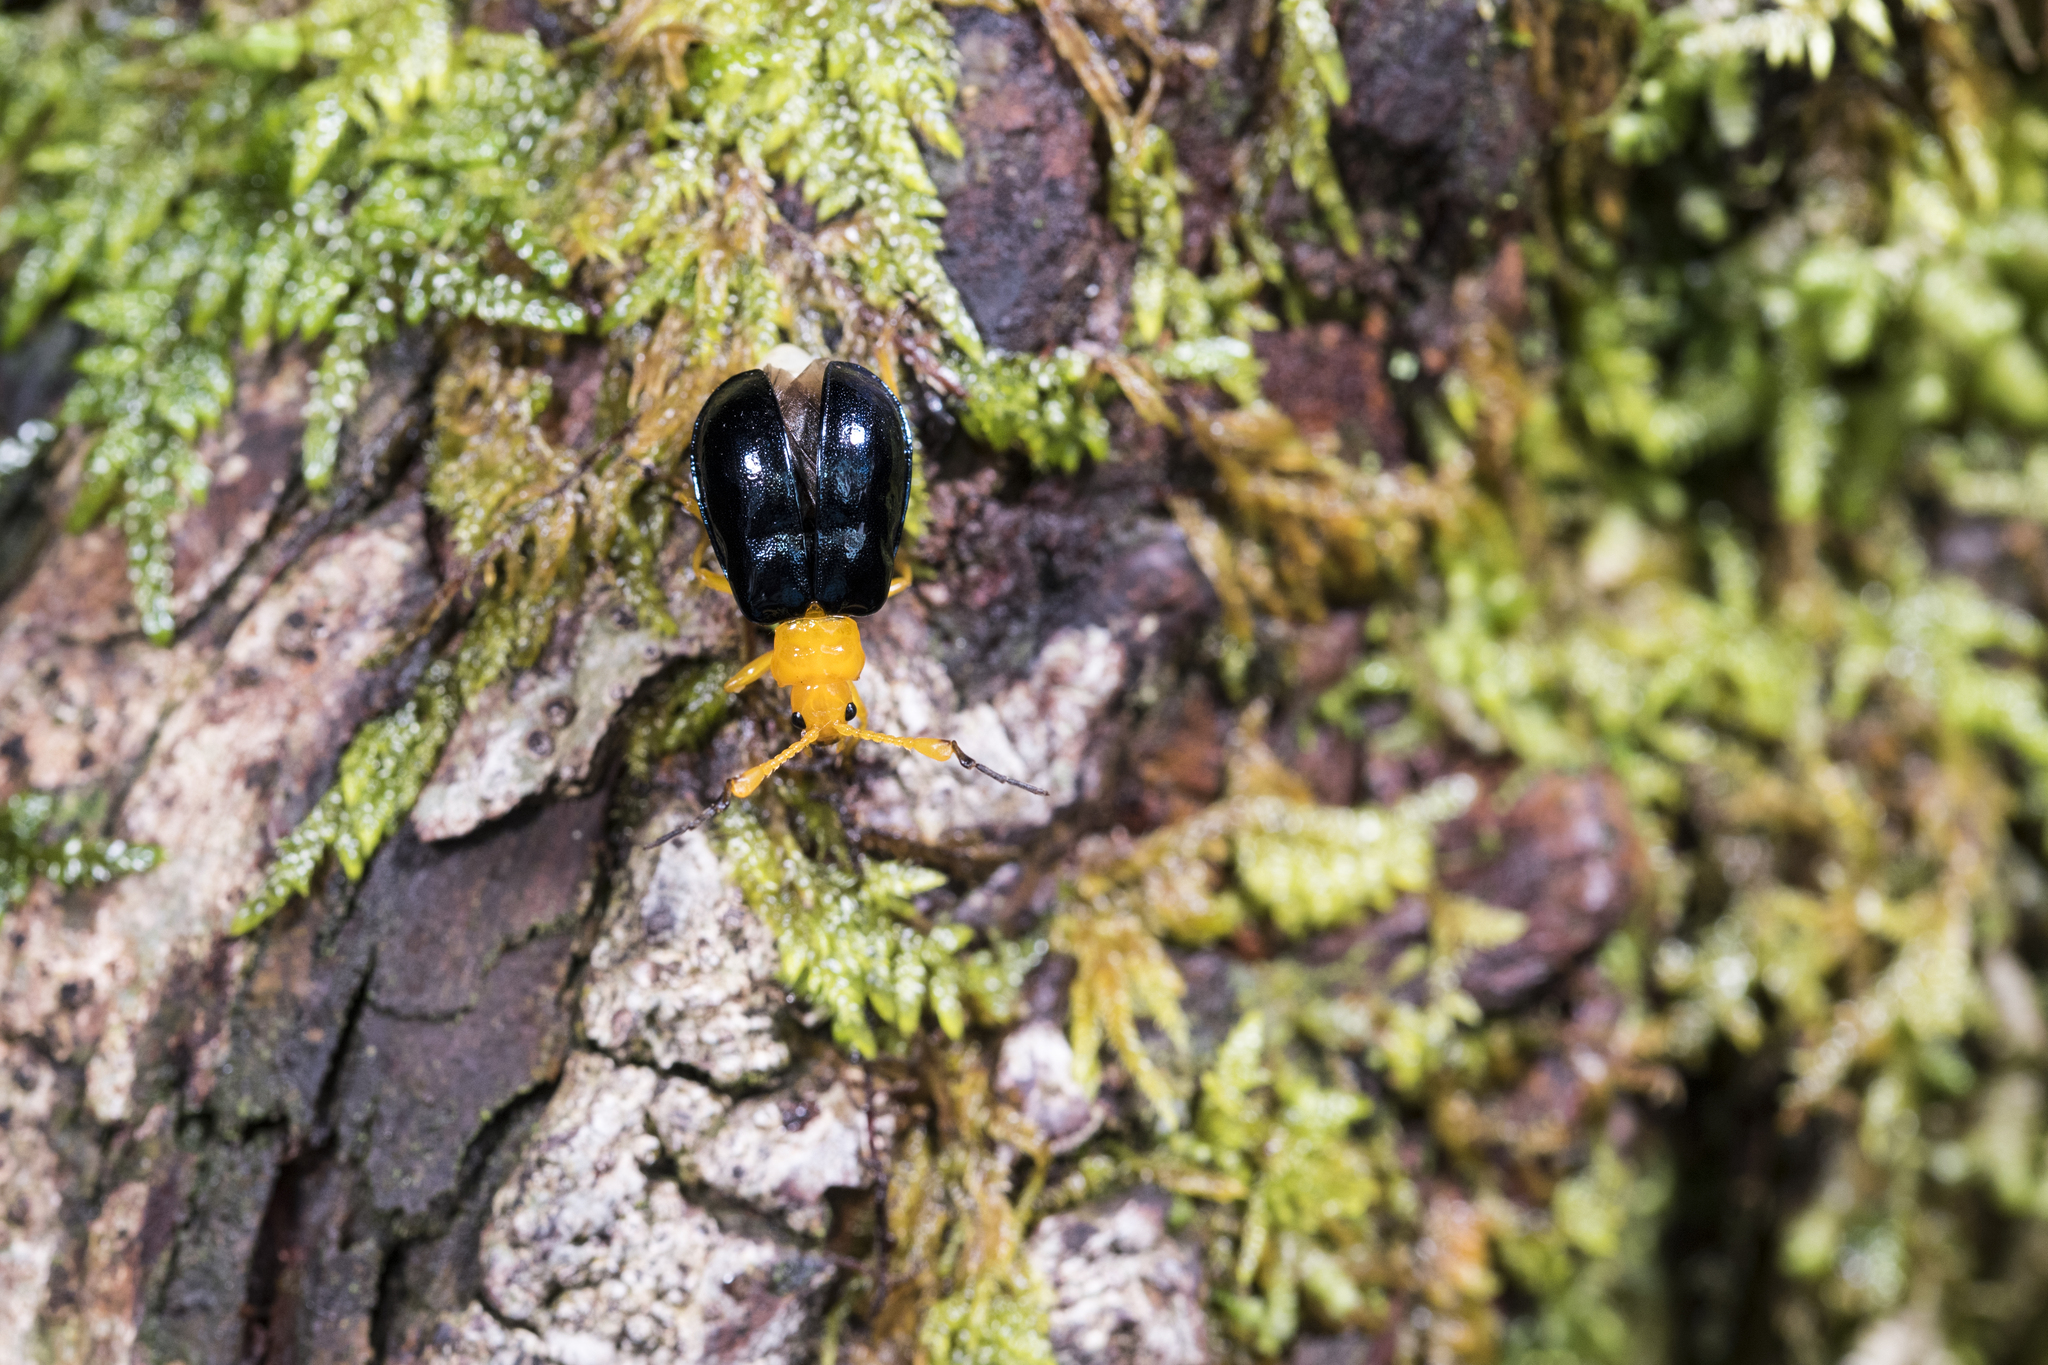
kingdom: Animalia
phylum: Arthropoda
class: Insecta
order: Coleoptera
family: Chrysomelidae
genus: Agetocera
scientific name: Agetocera discedens
